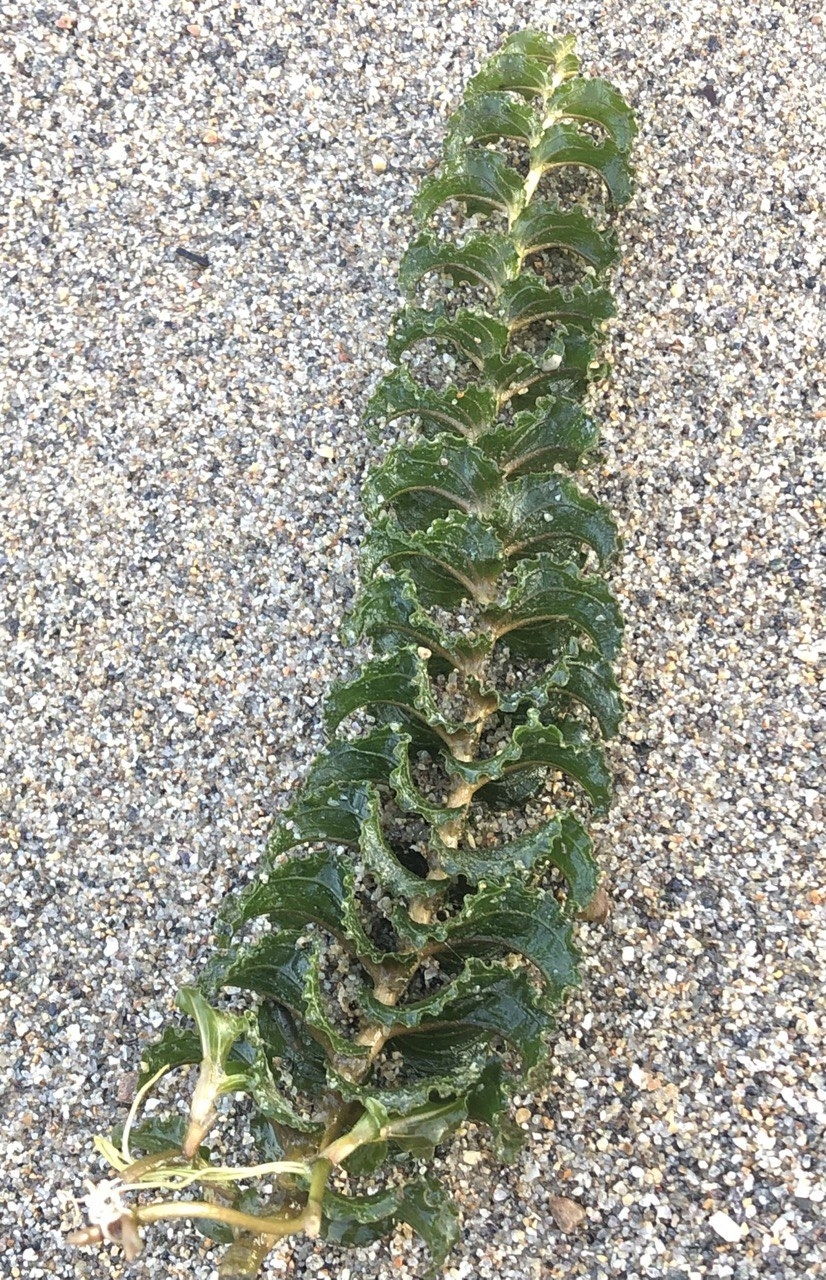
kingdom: Plantae
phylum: Tracheophyta
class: Liliopsida
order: Alismatales
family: Potamogetonaceae
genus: Potamogeton
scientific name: Potamogeton perfoliatus
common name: Perfoliate pondweed
